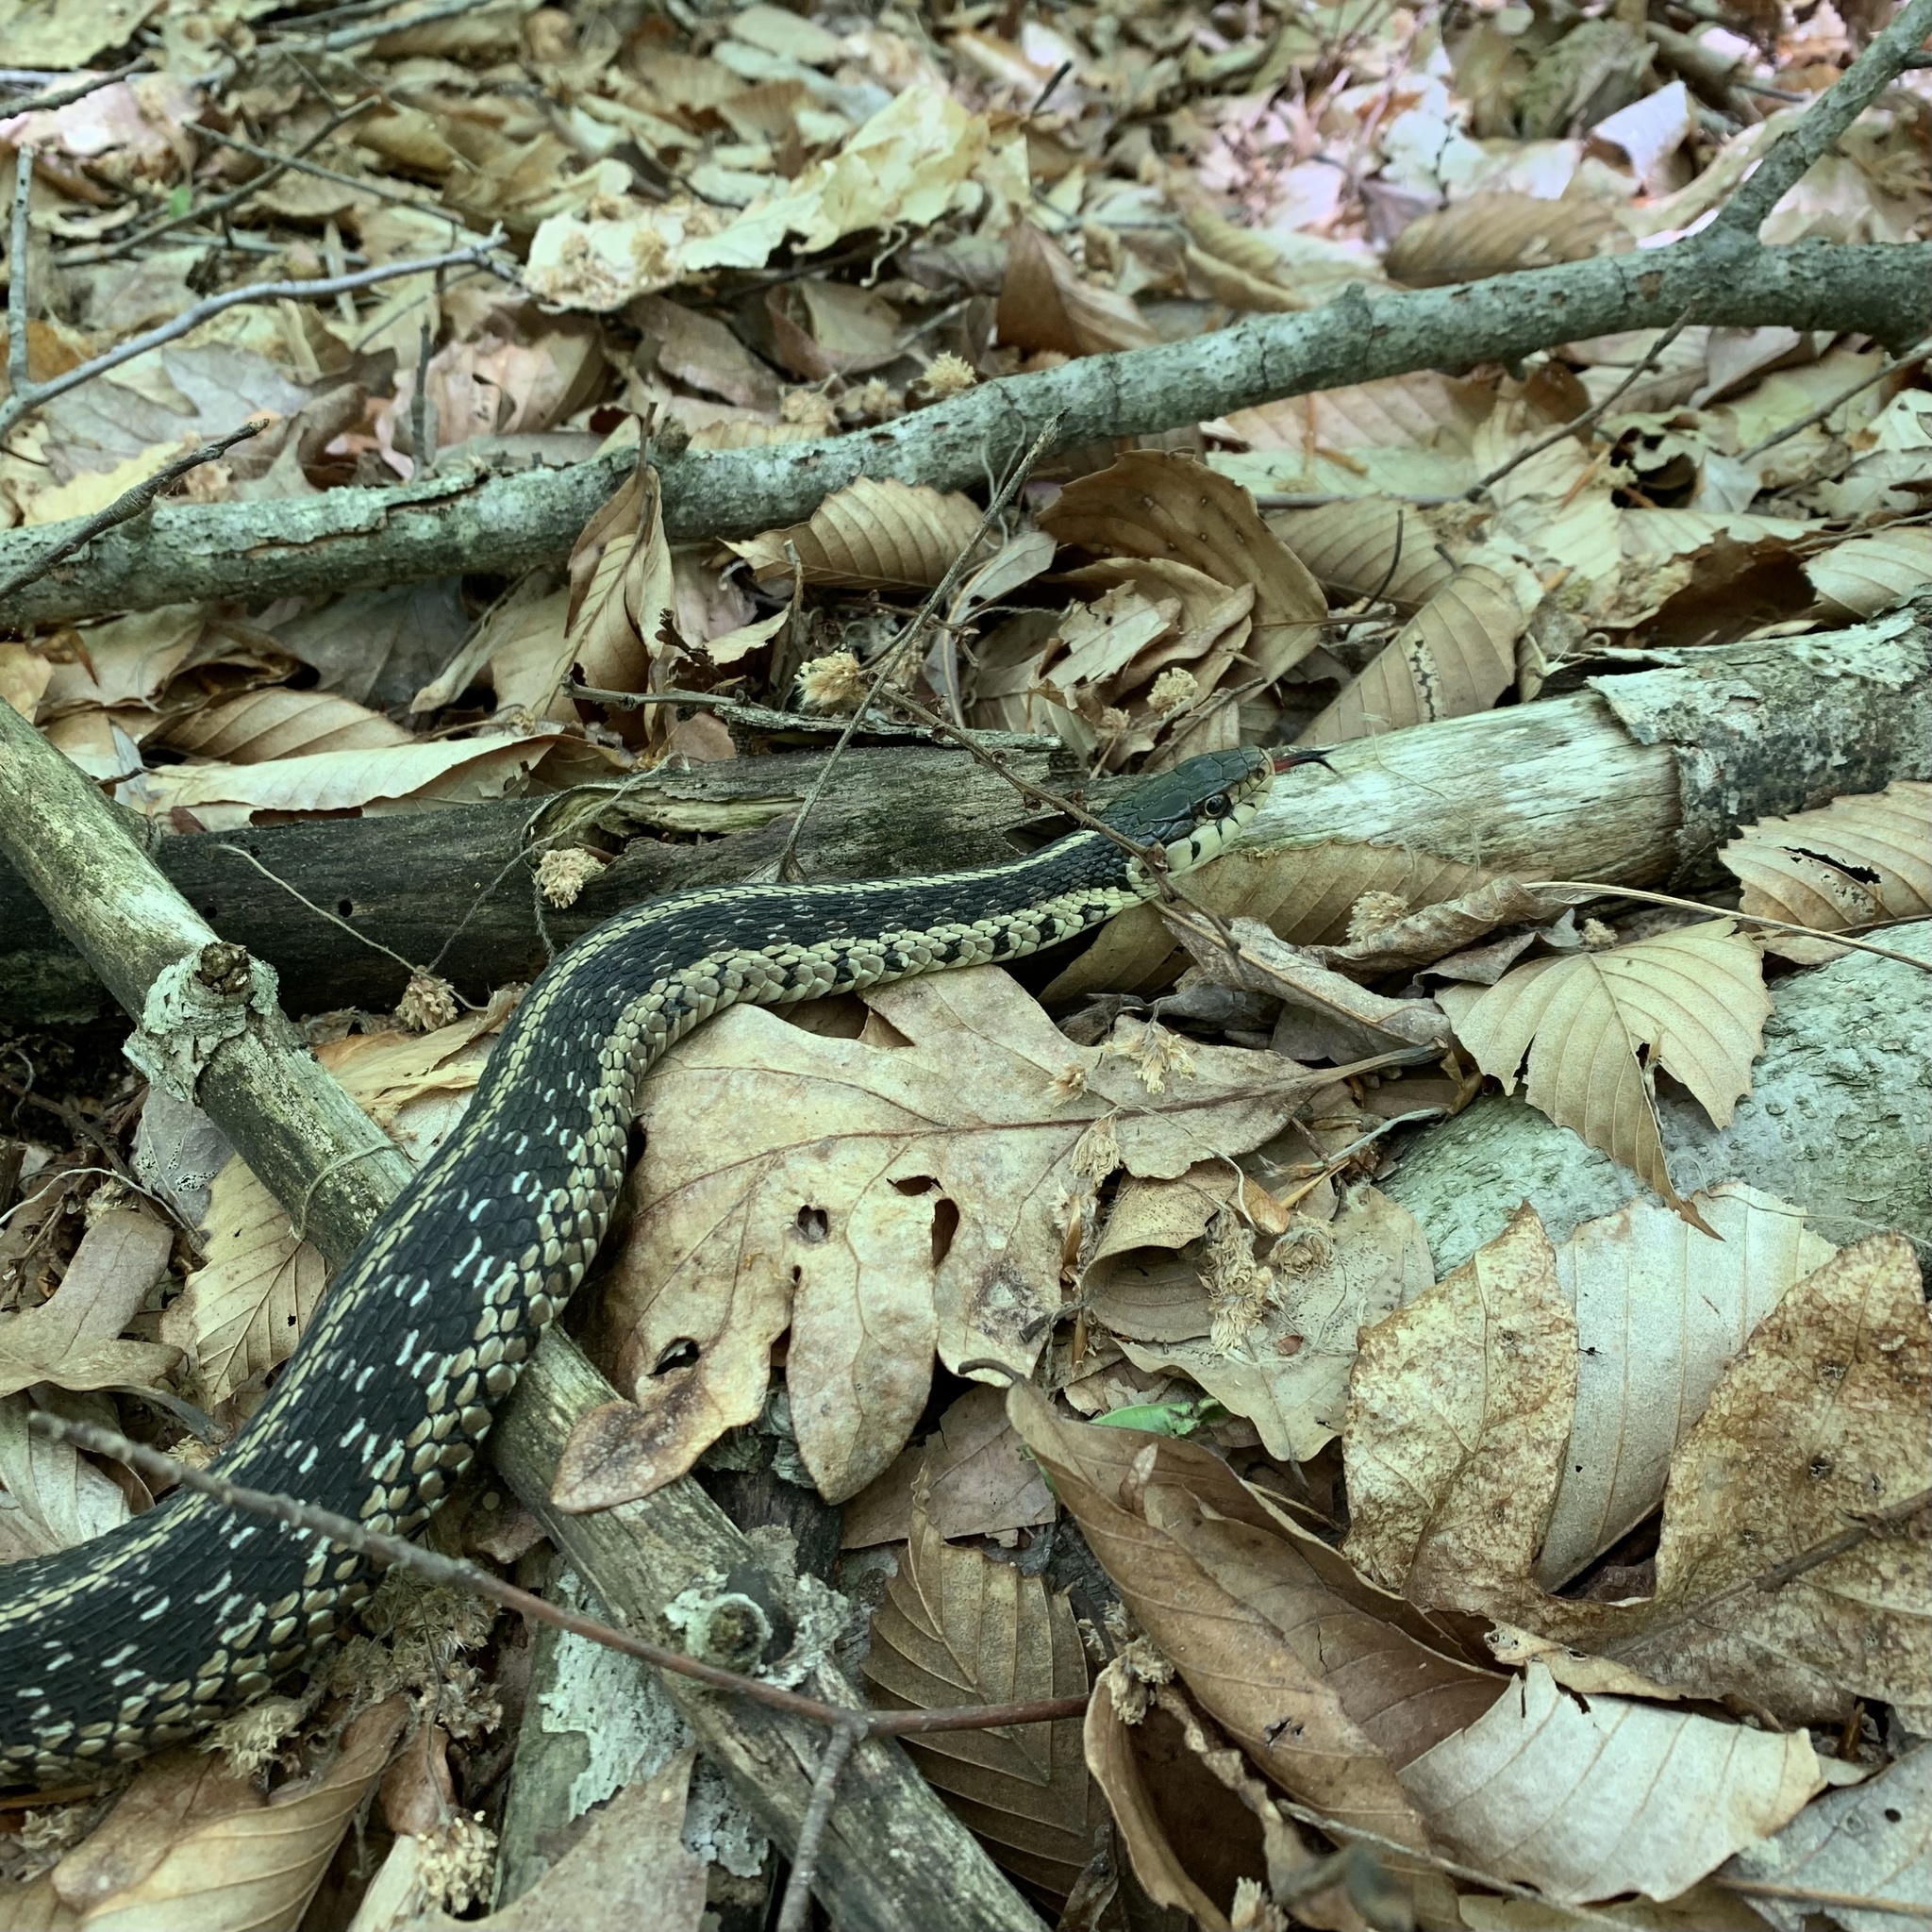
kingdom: Animalia
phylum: Chordata
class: Squamata
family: Colubridae
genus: Thamnophis
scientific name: Thamnophis sirtalis
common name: Common garter snake
